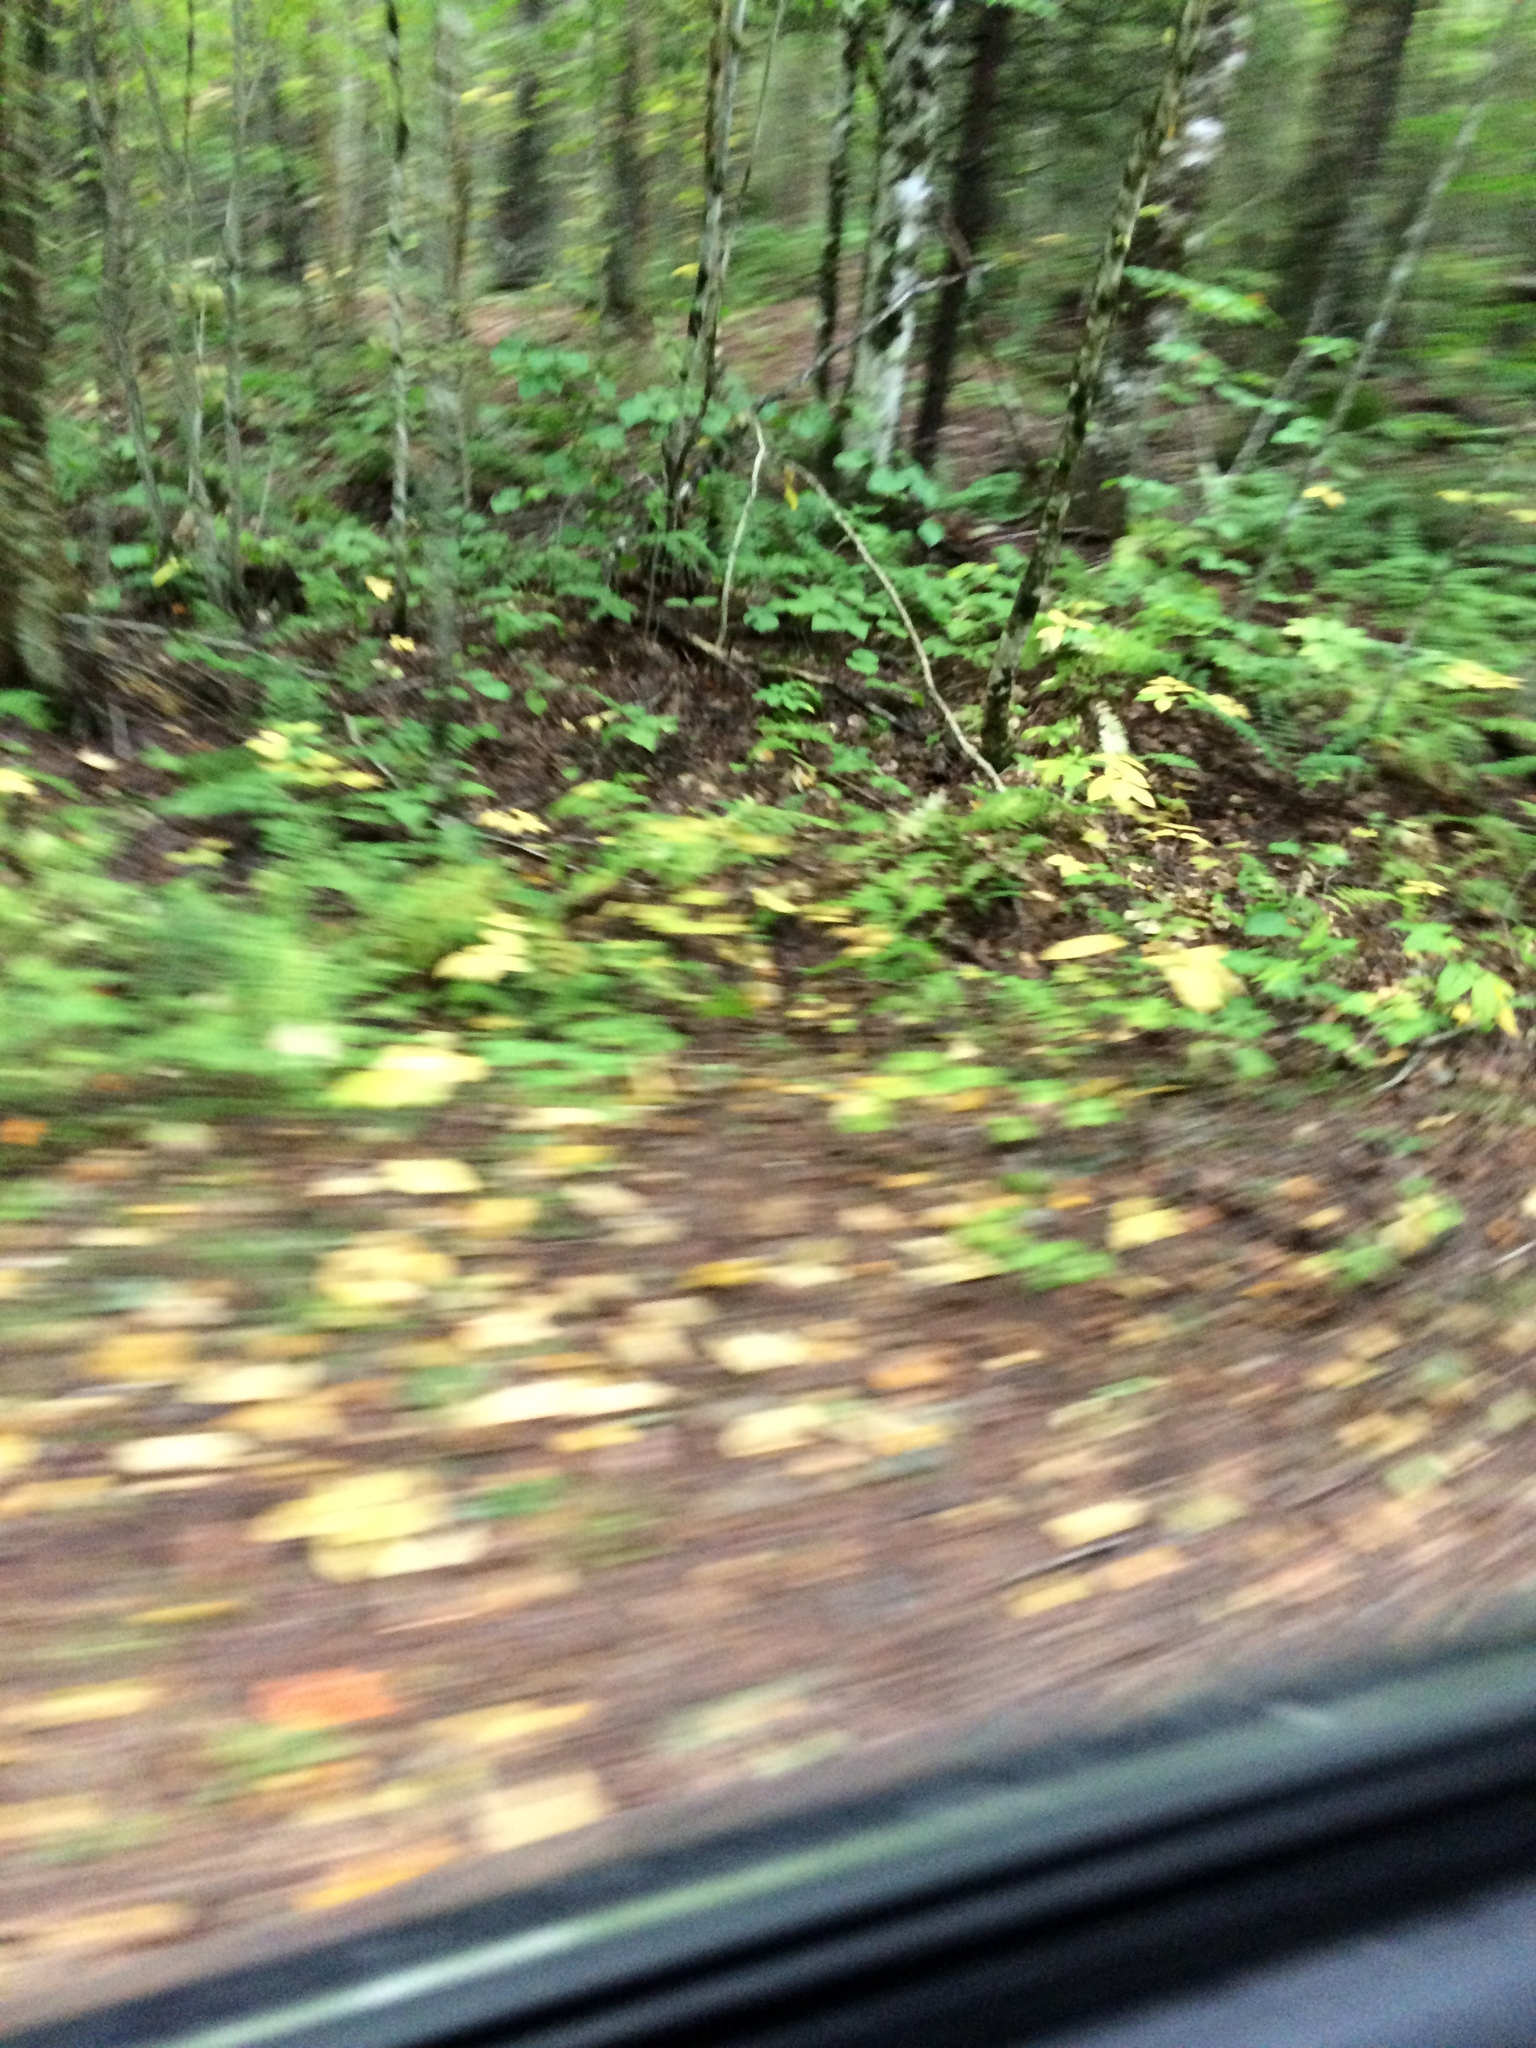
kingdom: Plantae
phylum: Tracheophyta
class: Magnoliopsida
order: Apiales
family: Araliaceae
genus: Aralia
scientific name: Aralia nudicaulis
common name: Wild sarsaparilla
